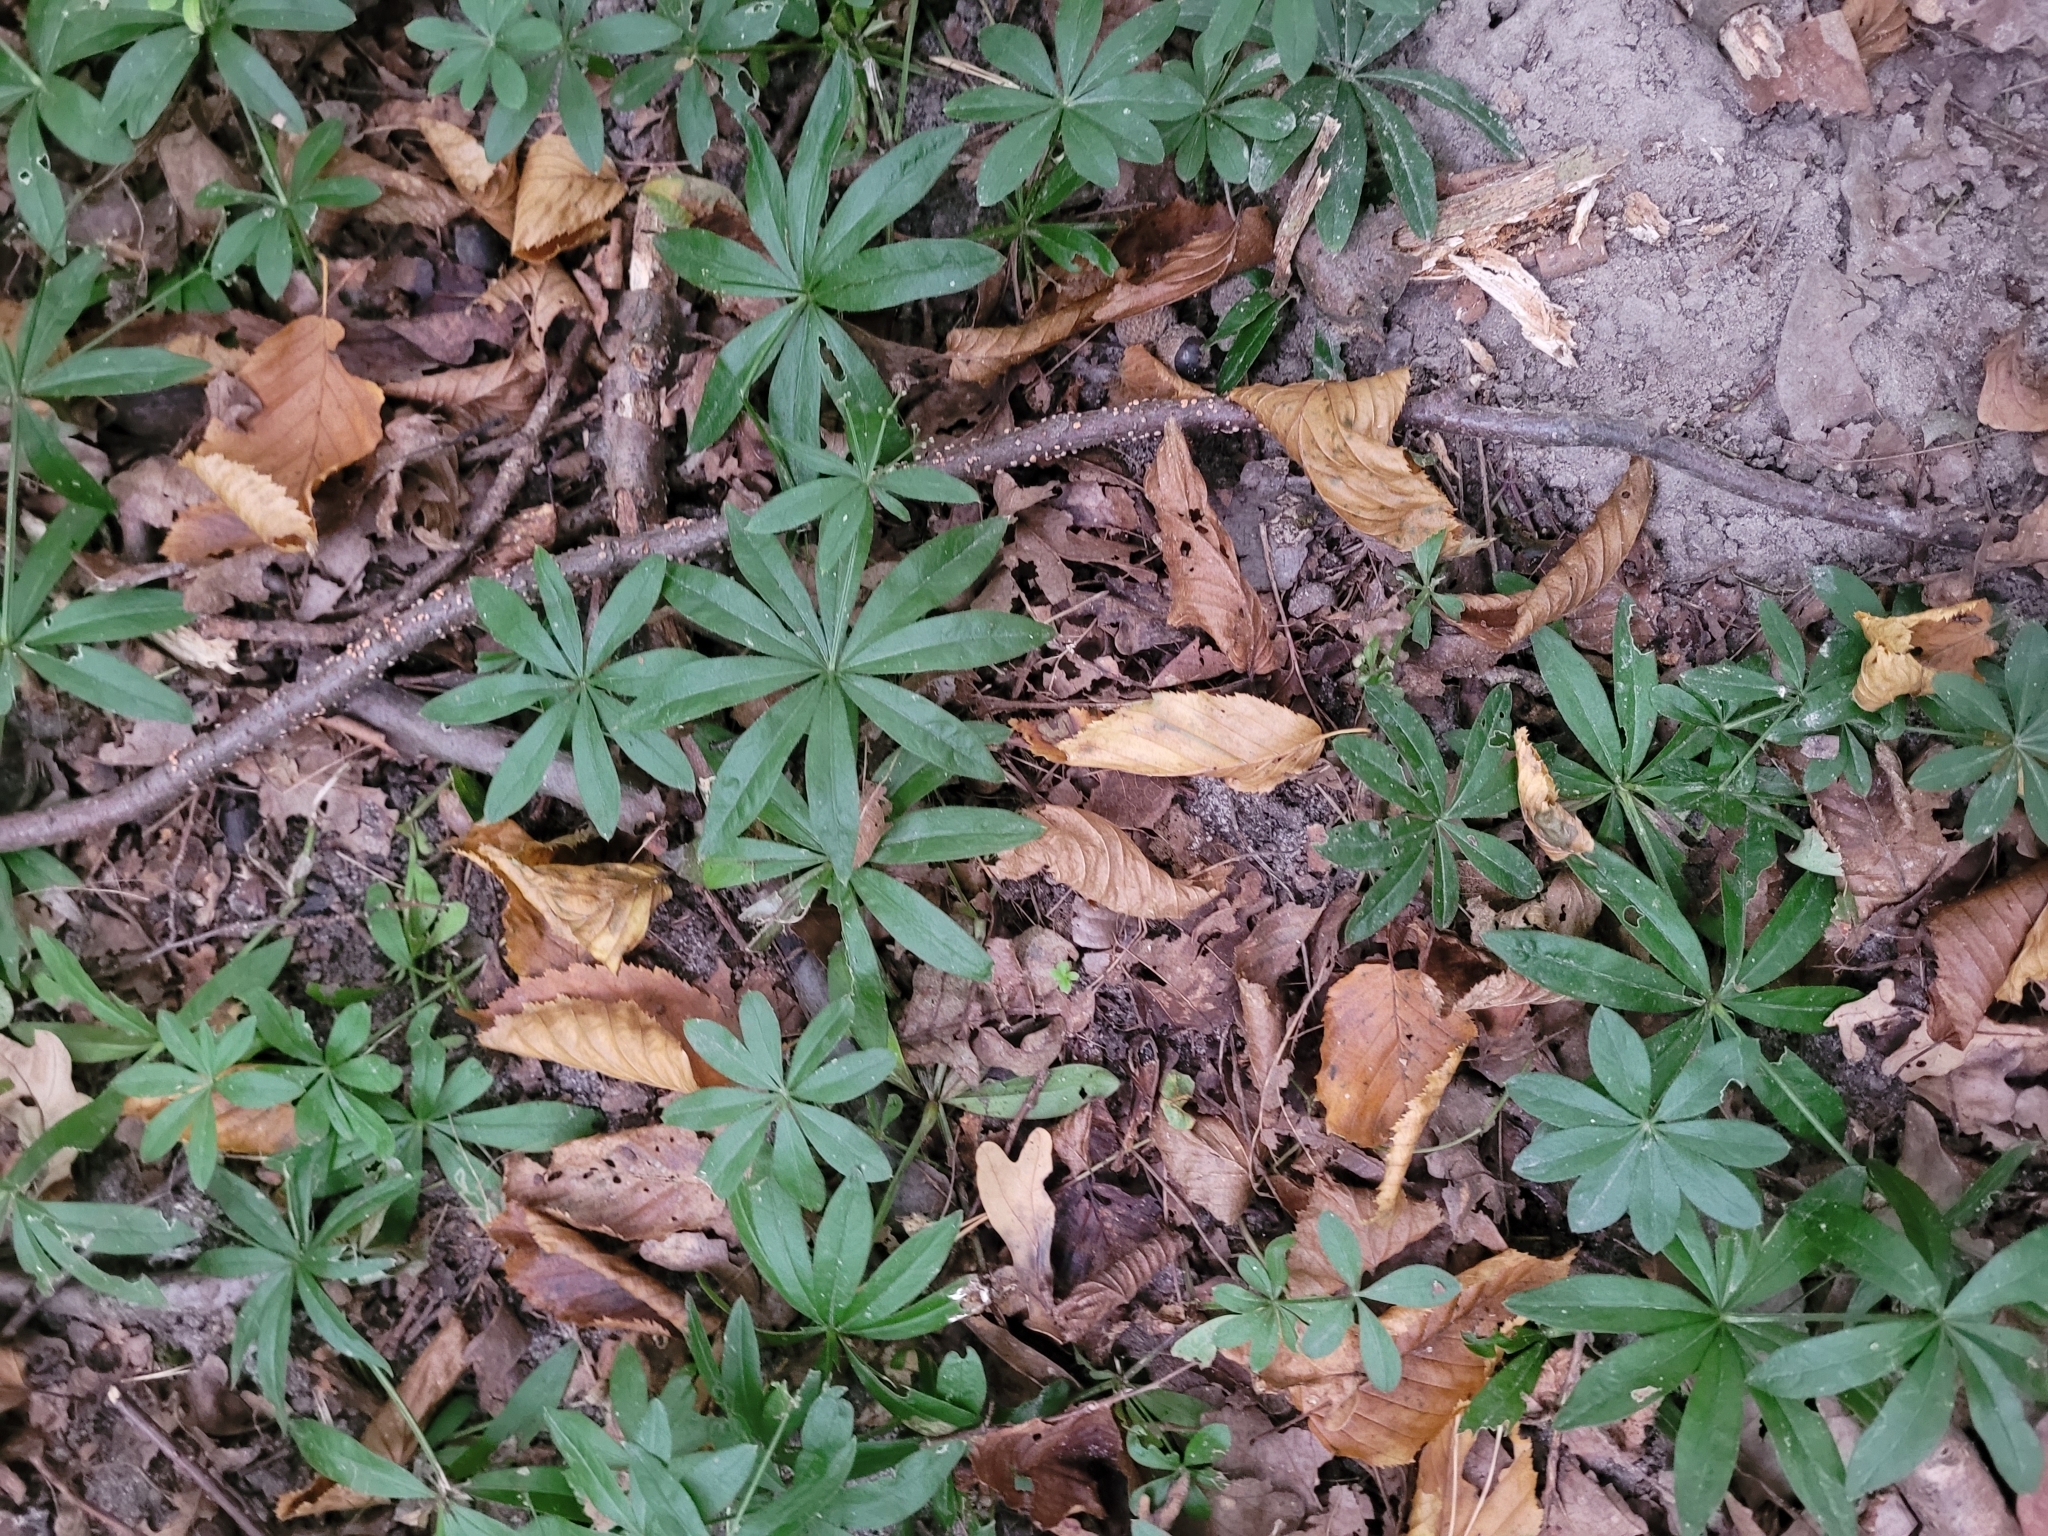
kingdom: Plantae
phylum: Tracheophyta
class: Magnoliopsida
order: Gentianales
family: Rubiaceae
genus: Galium
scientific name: Galium odoratum
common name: Sweet woodruff
